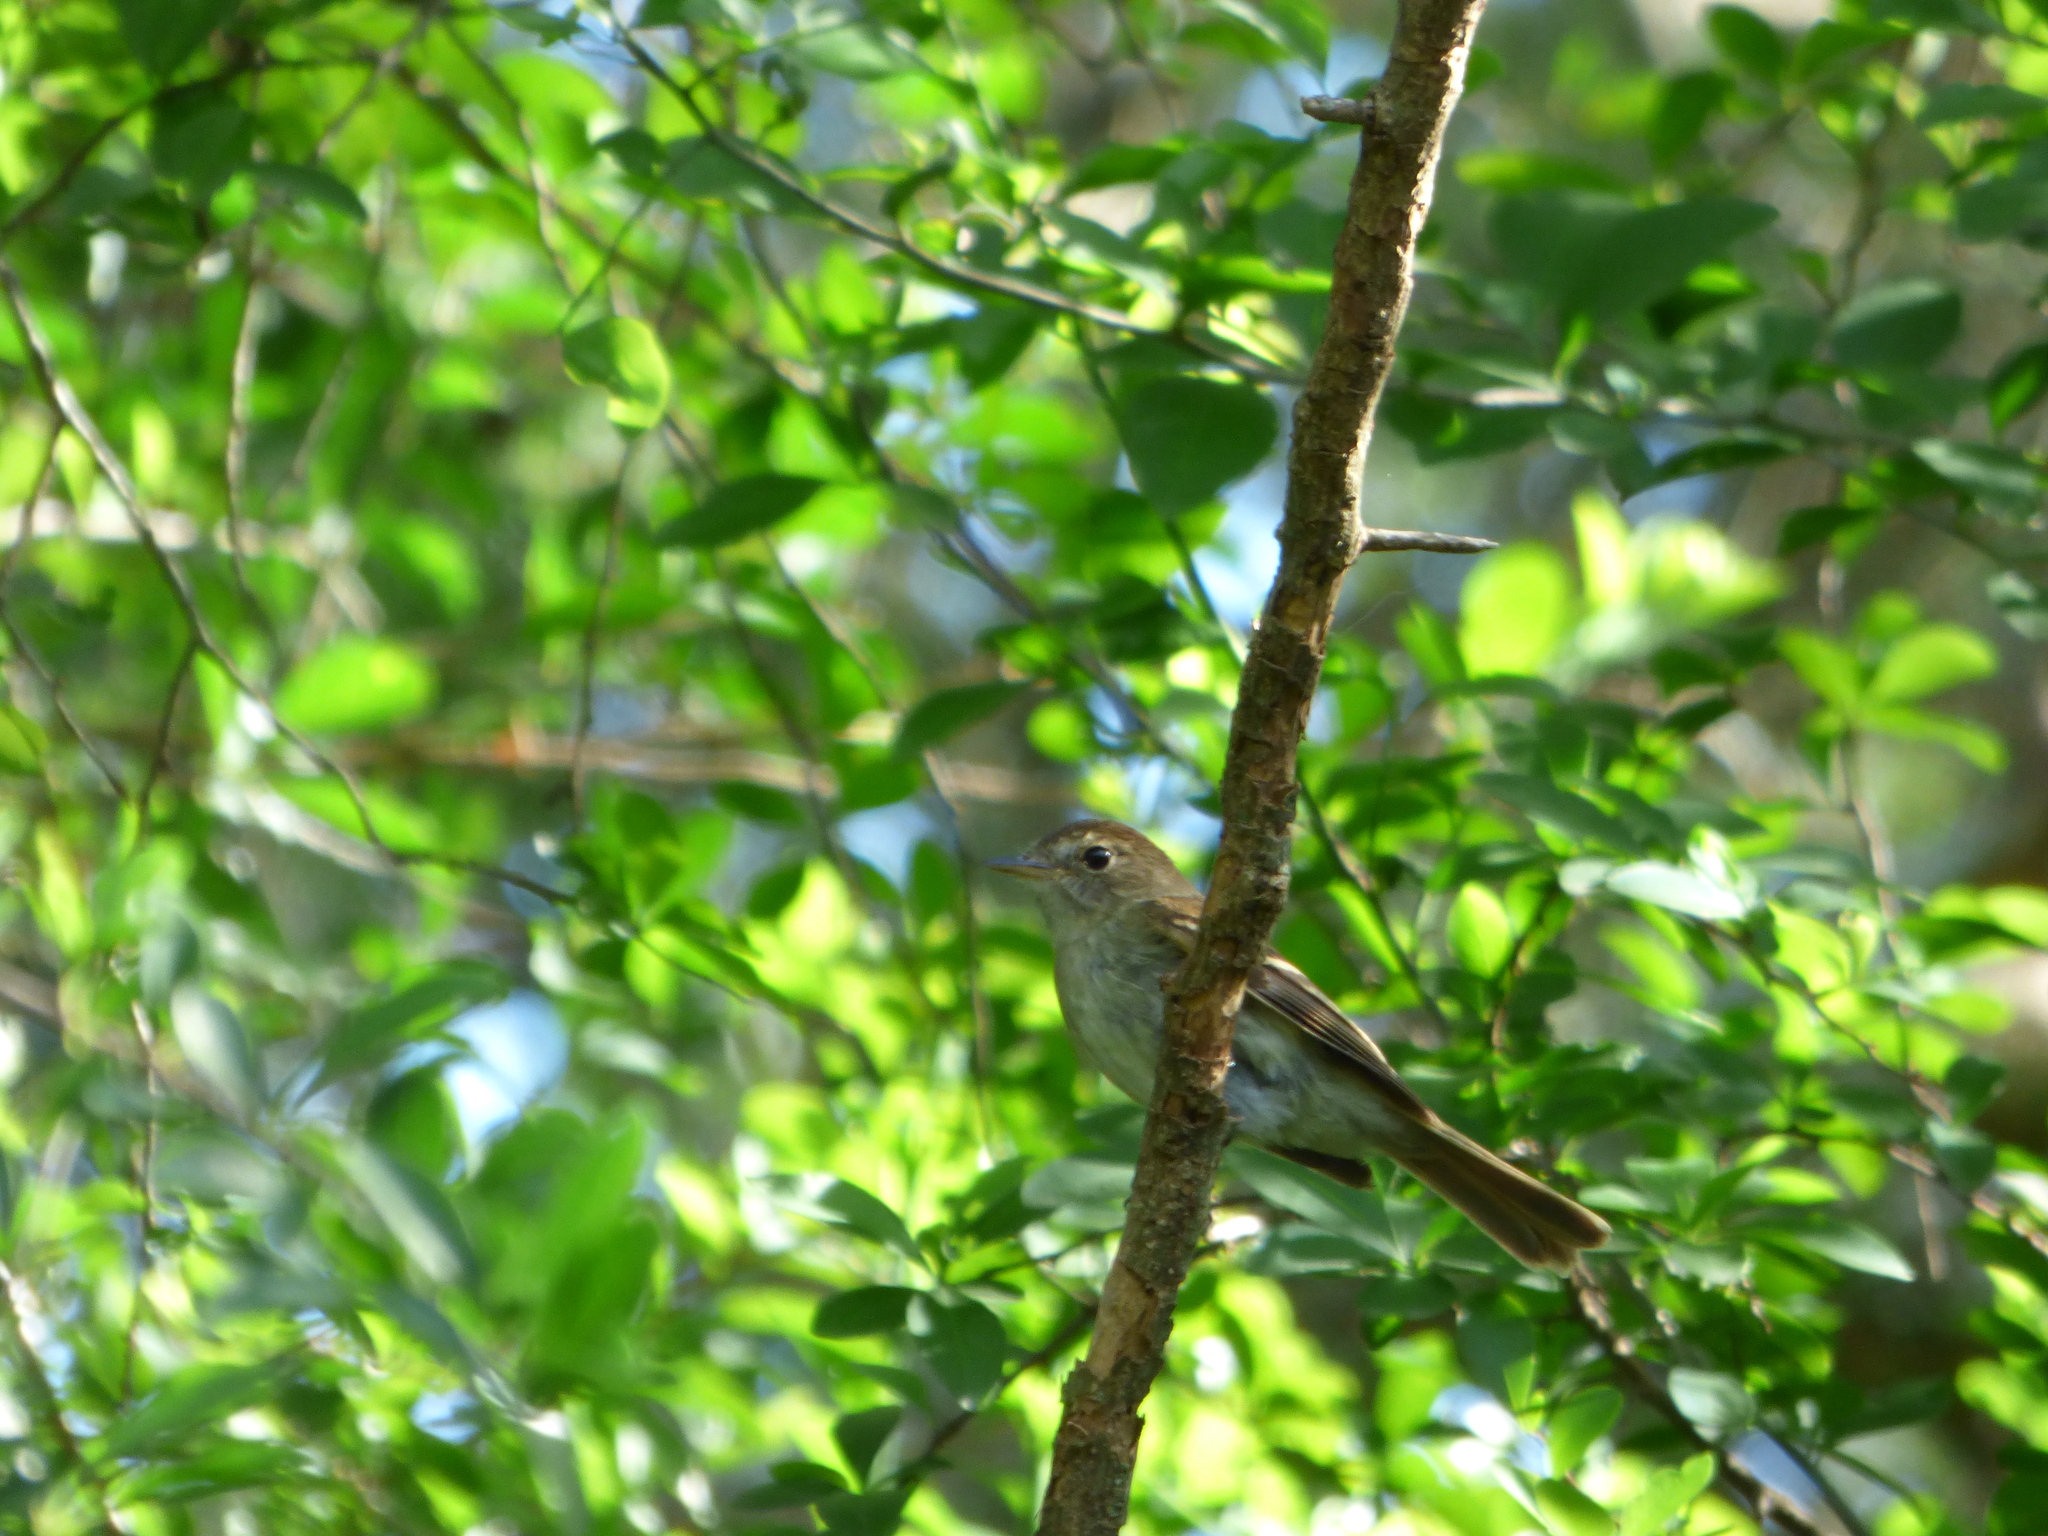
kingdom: Animalia
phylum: Chordata
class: Aves
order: Passeriformes
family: Tyrannidae
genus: Lathrotriccus
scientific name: Lathrotriccus euleri
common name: Euler's flycatcher
